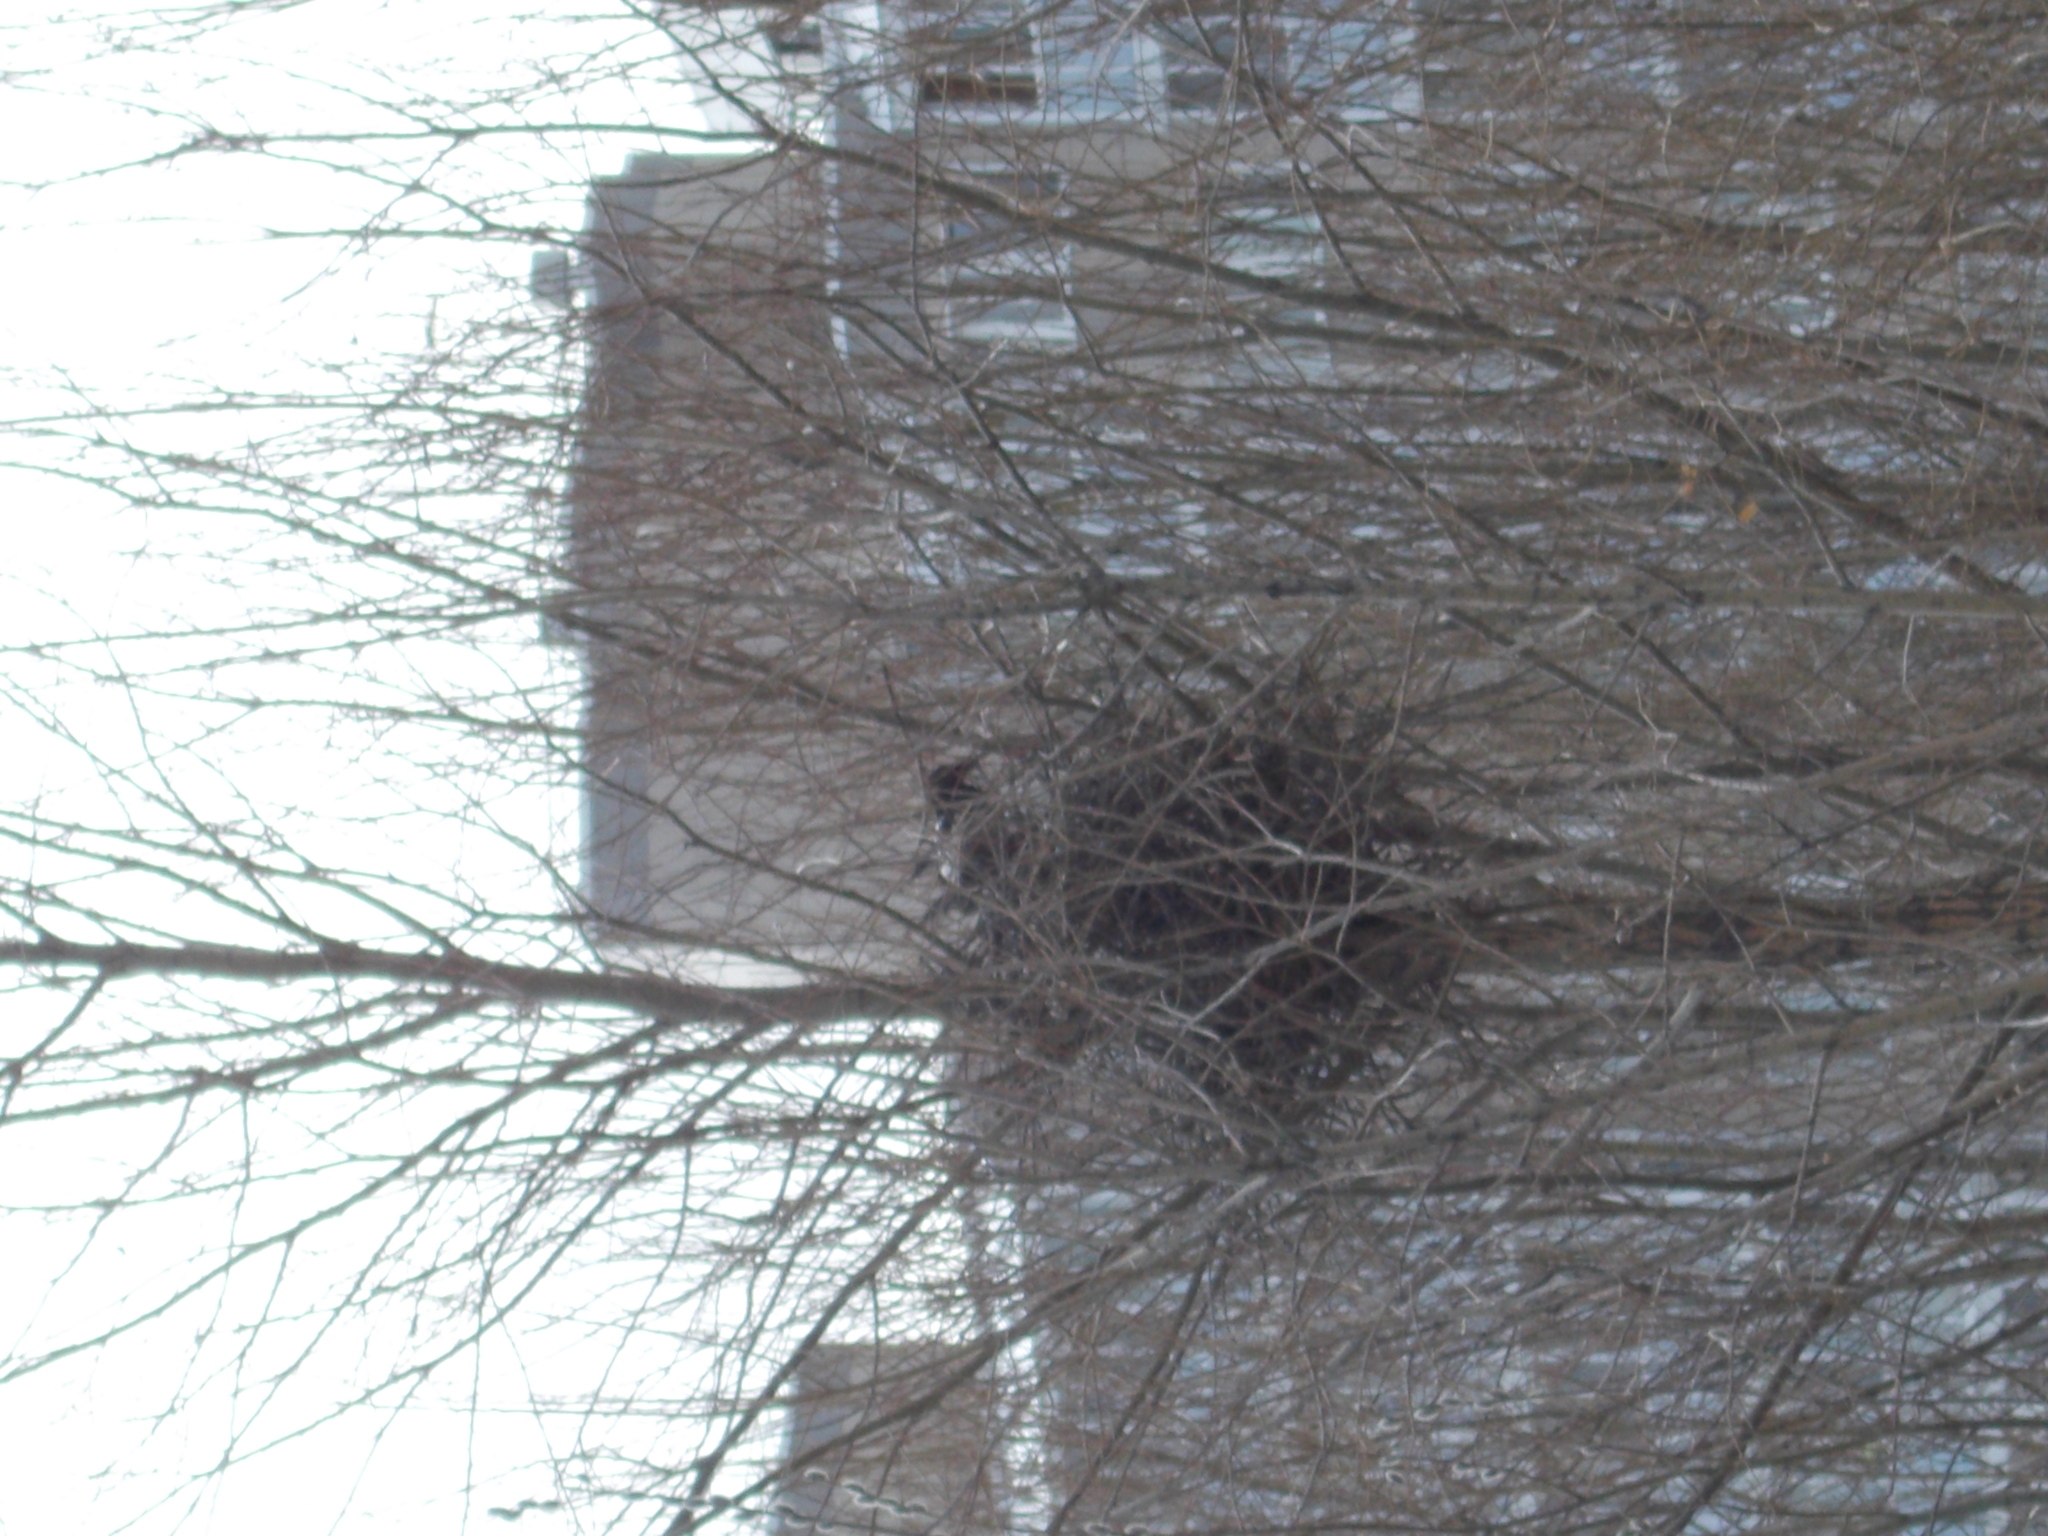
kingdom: Animalia
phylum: Chordata
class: Aves
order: Passeriformes
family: Corvidae
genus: Pica
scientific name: Pica pica
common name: Eurasian magpie
